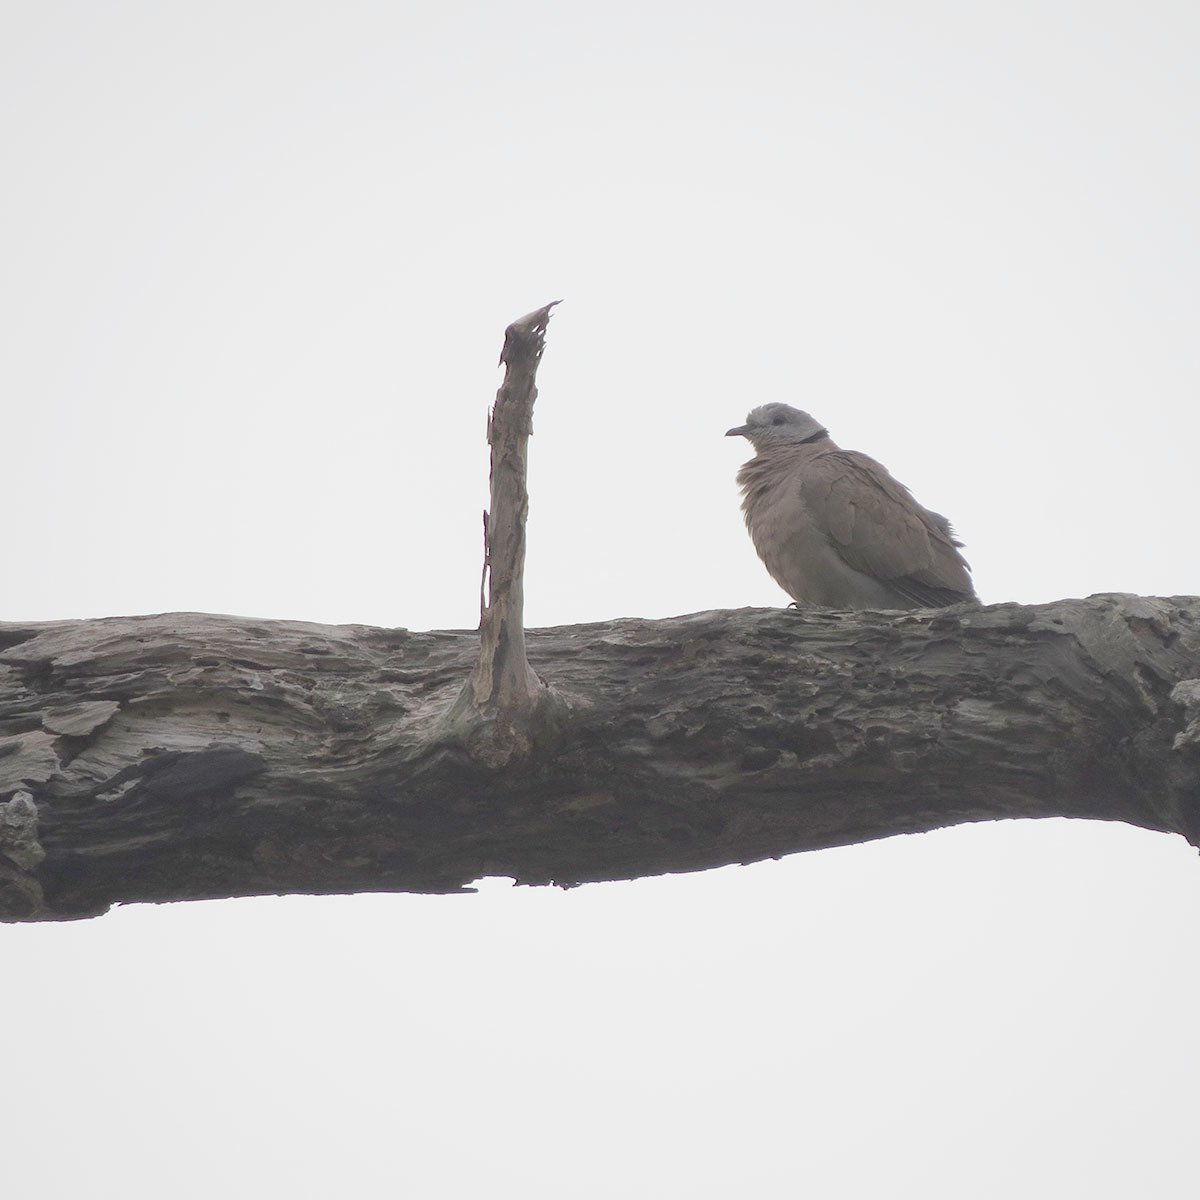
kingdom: Animalia
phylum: Chordata
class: Aves
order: Columbiformes
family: Columbidae
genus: Streptopelia
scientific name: Streptopelia tranquebarica
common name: Red turtle dove
